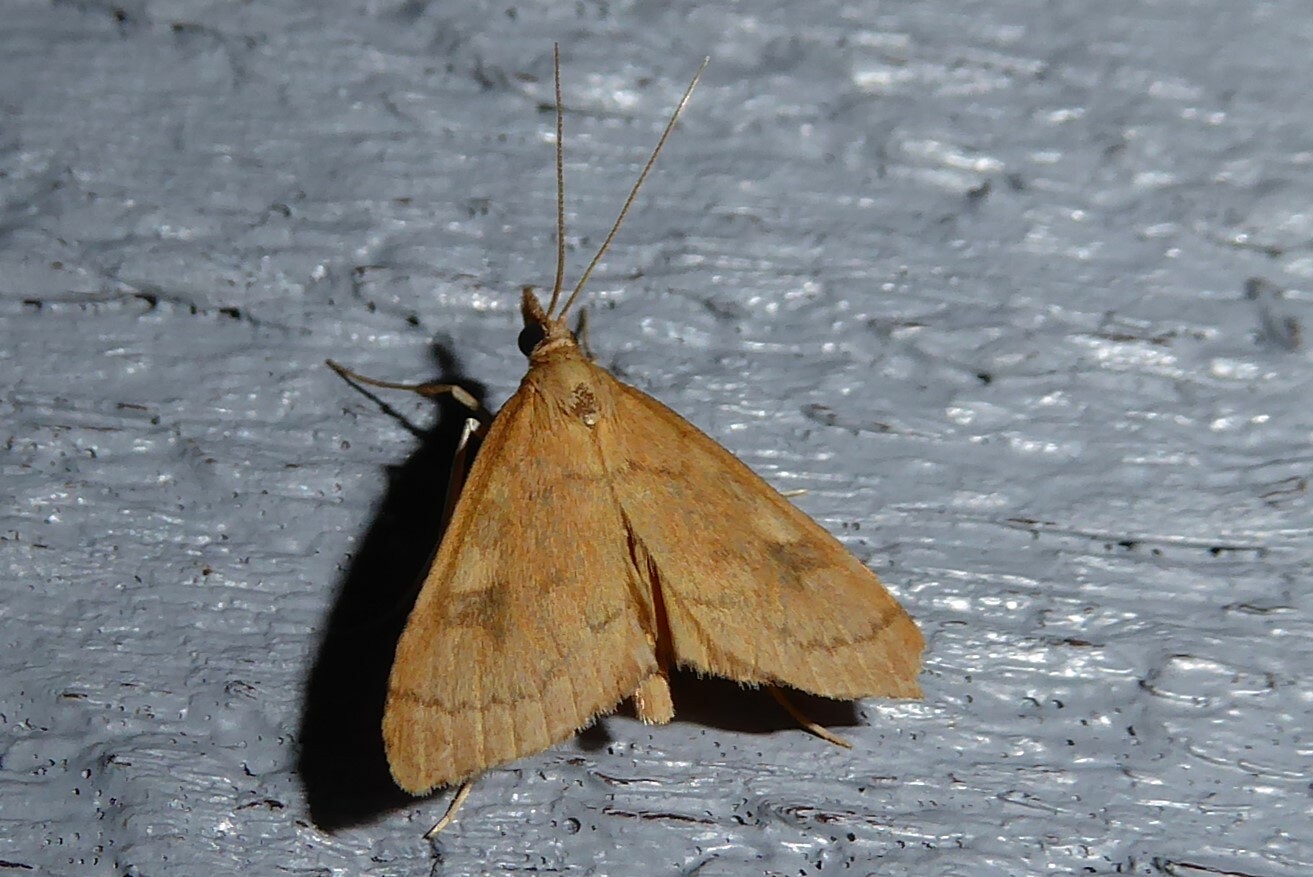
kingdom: Animalia
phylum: Arthropoda
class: Insecta
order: Lepidoptera
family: Crambidae
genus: Udea
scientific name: Udea Mnesictena flavidalis
